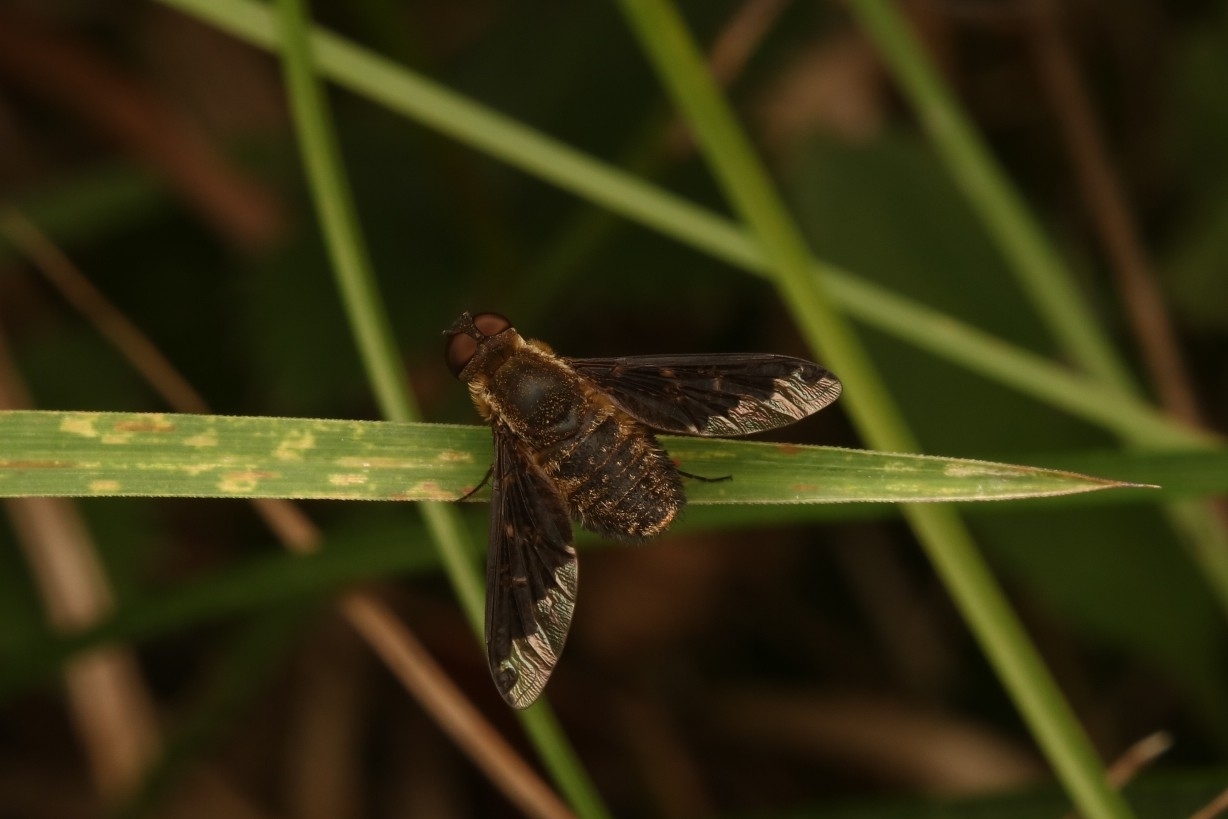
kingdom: Animalia
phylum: Arthropoda
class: Insecta
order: Diptera
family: Bombyliidae
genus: Hemipenthes
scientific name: Hemipenthes sinuosus
